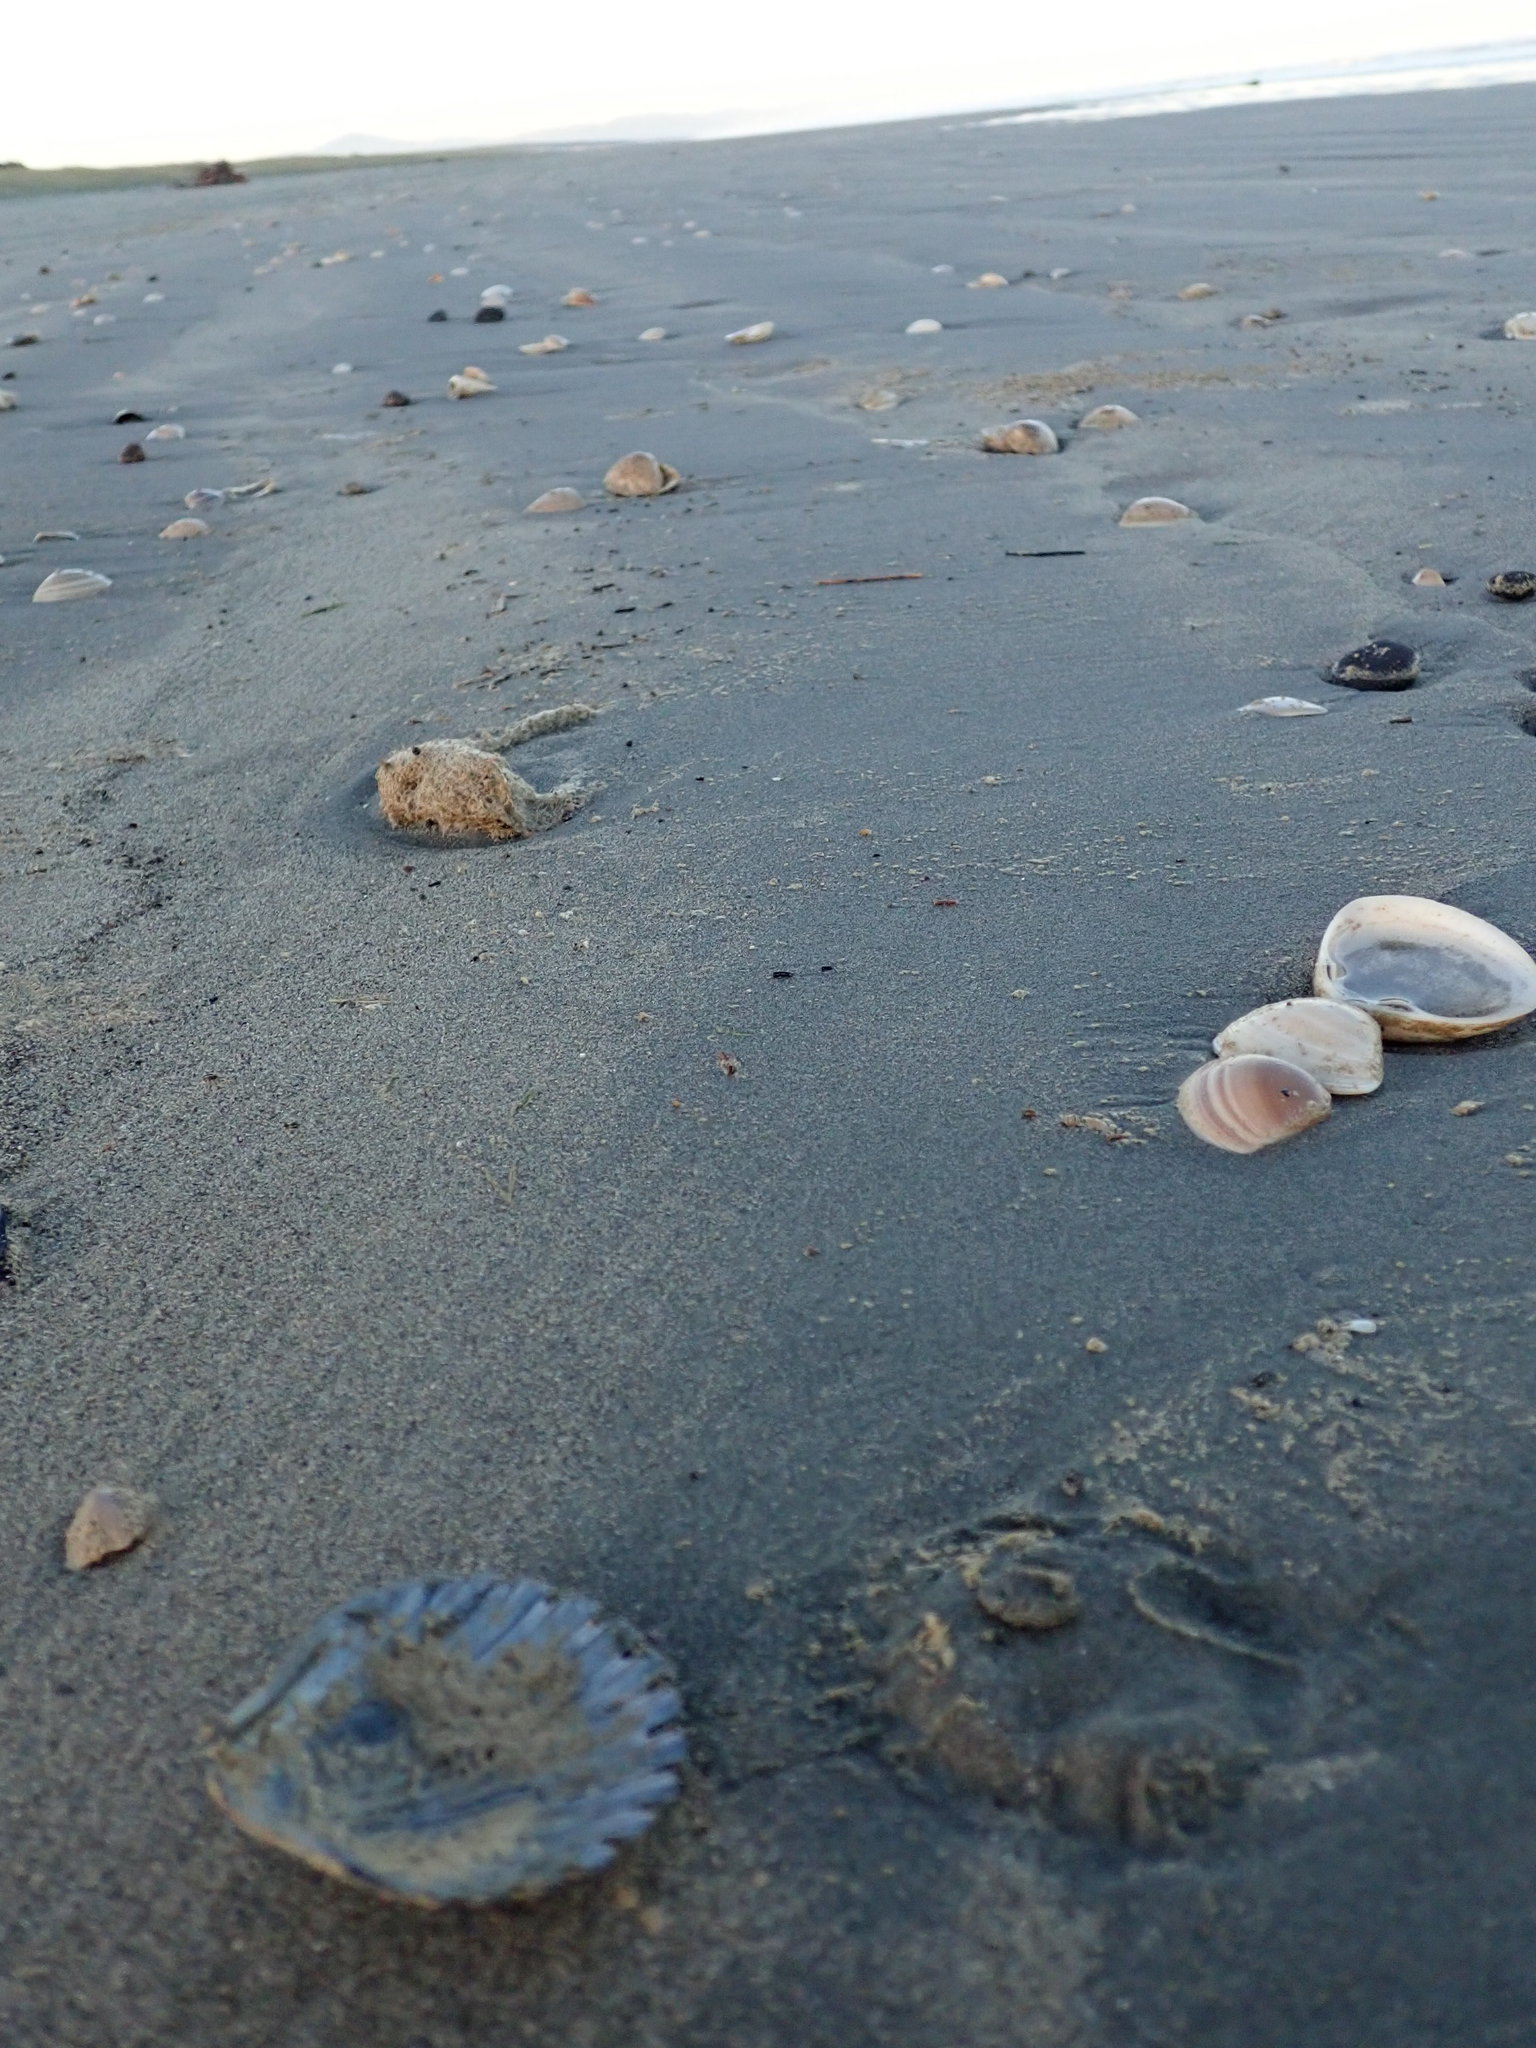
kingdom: Animalia
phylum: Mollusca
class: Bivalvia
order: Pectinida
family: Pectinidae
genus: Pecten
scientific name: Pecten novaezelandiae
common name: New zealand scallop
